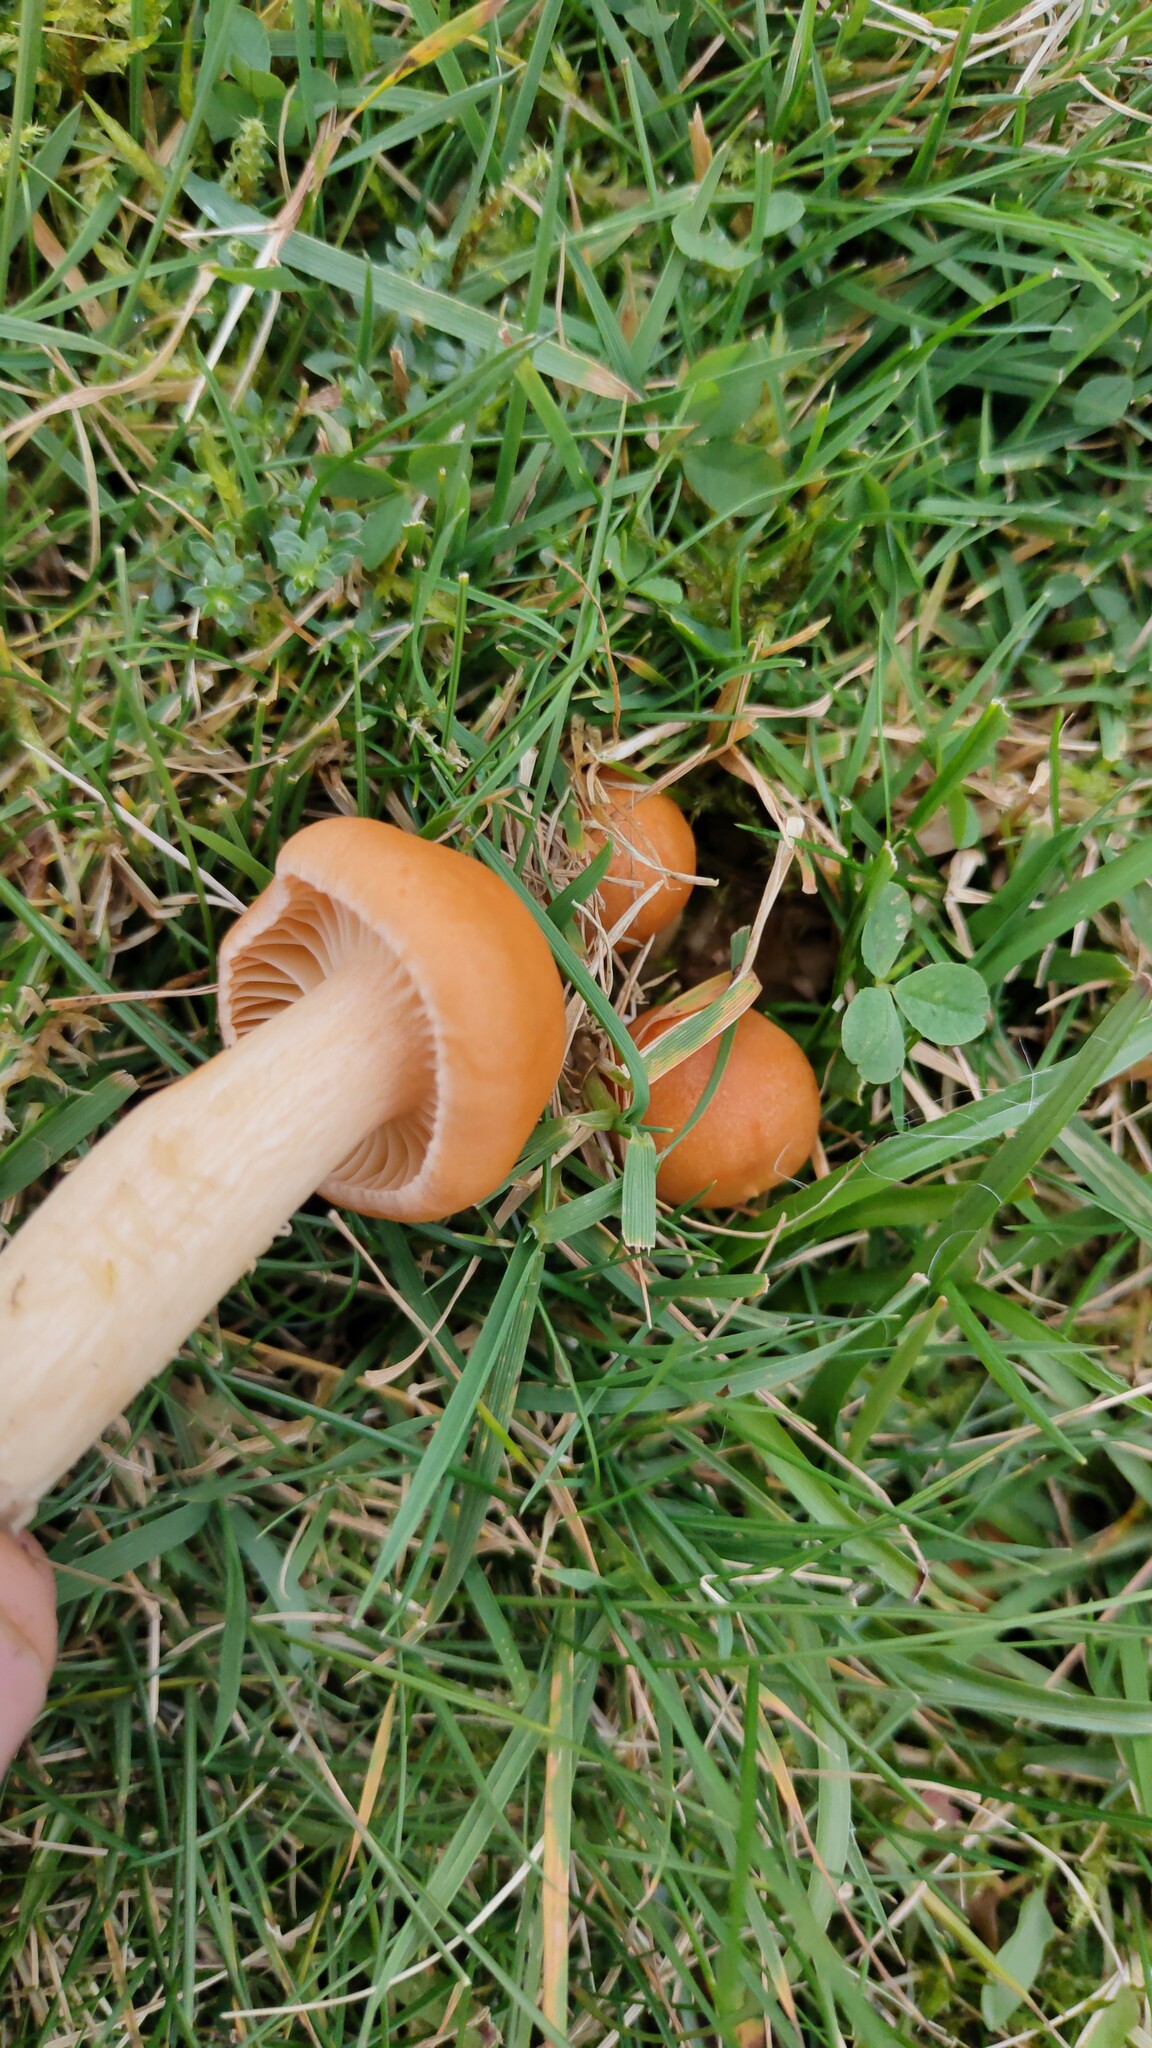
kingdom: Fungi
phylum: Basidiomycota
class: Agaricomycetes
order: Agaricales
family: Hygrophoraceae
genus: Cuphophyllus
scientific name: Cuphophyllus pratensis
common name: Meadow waxcap
